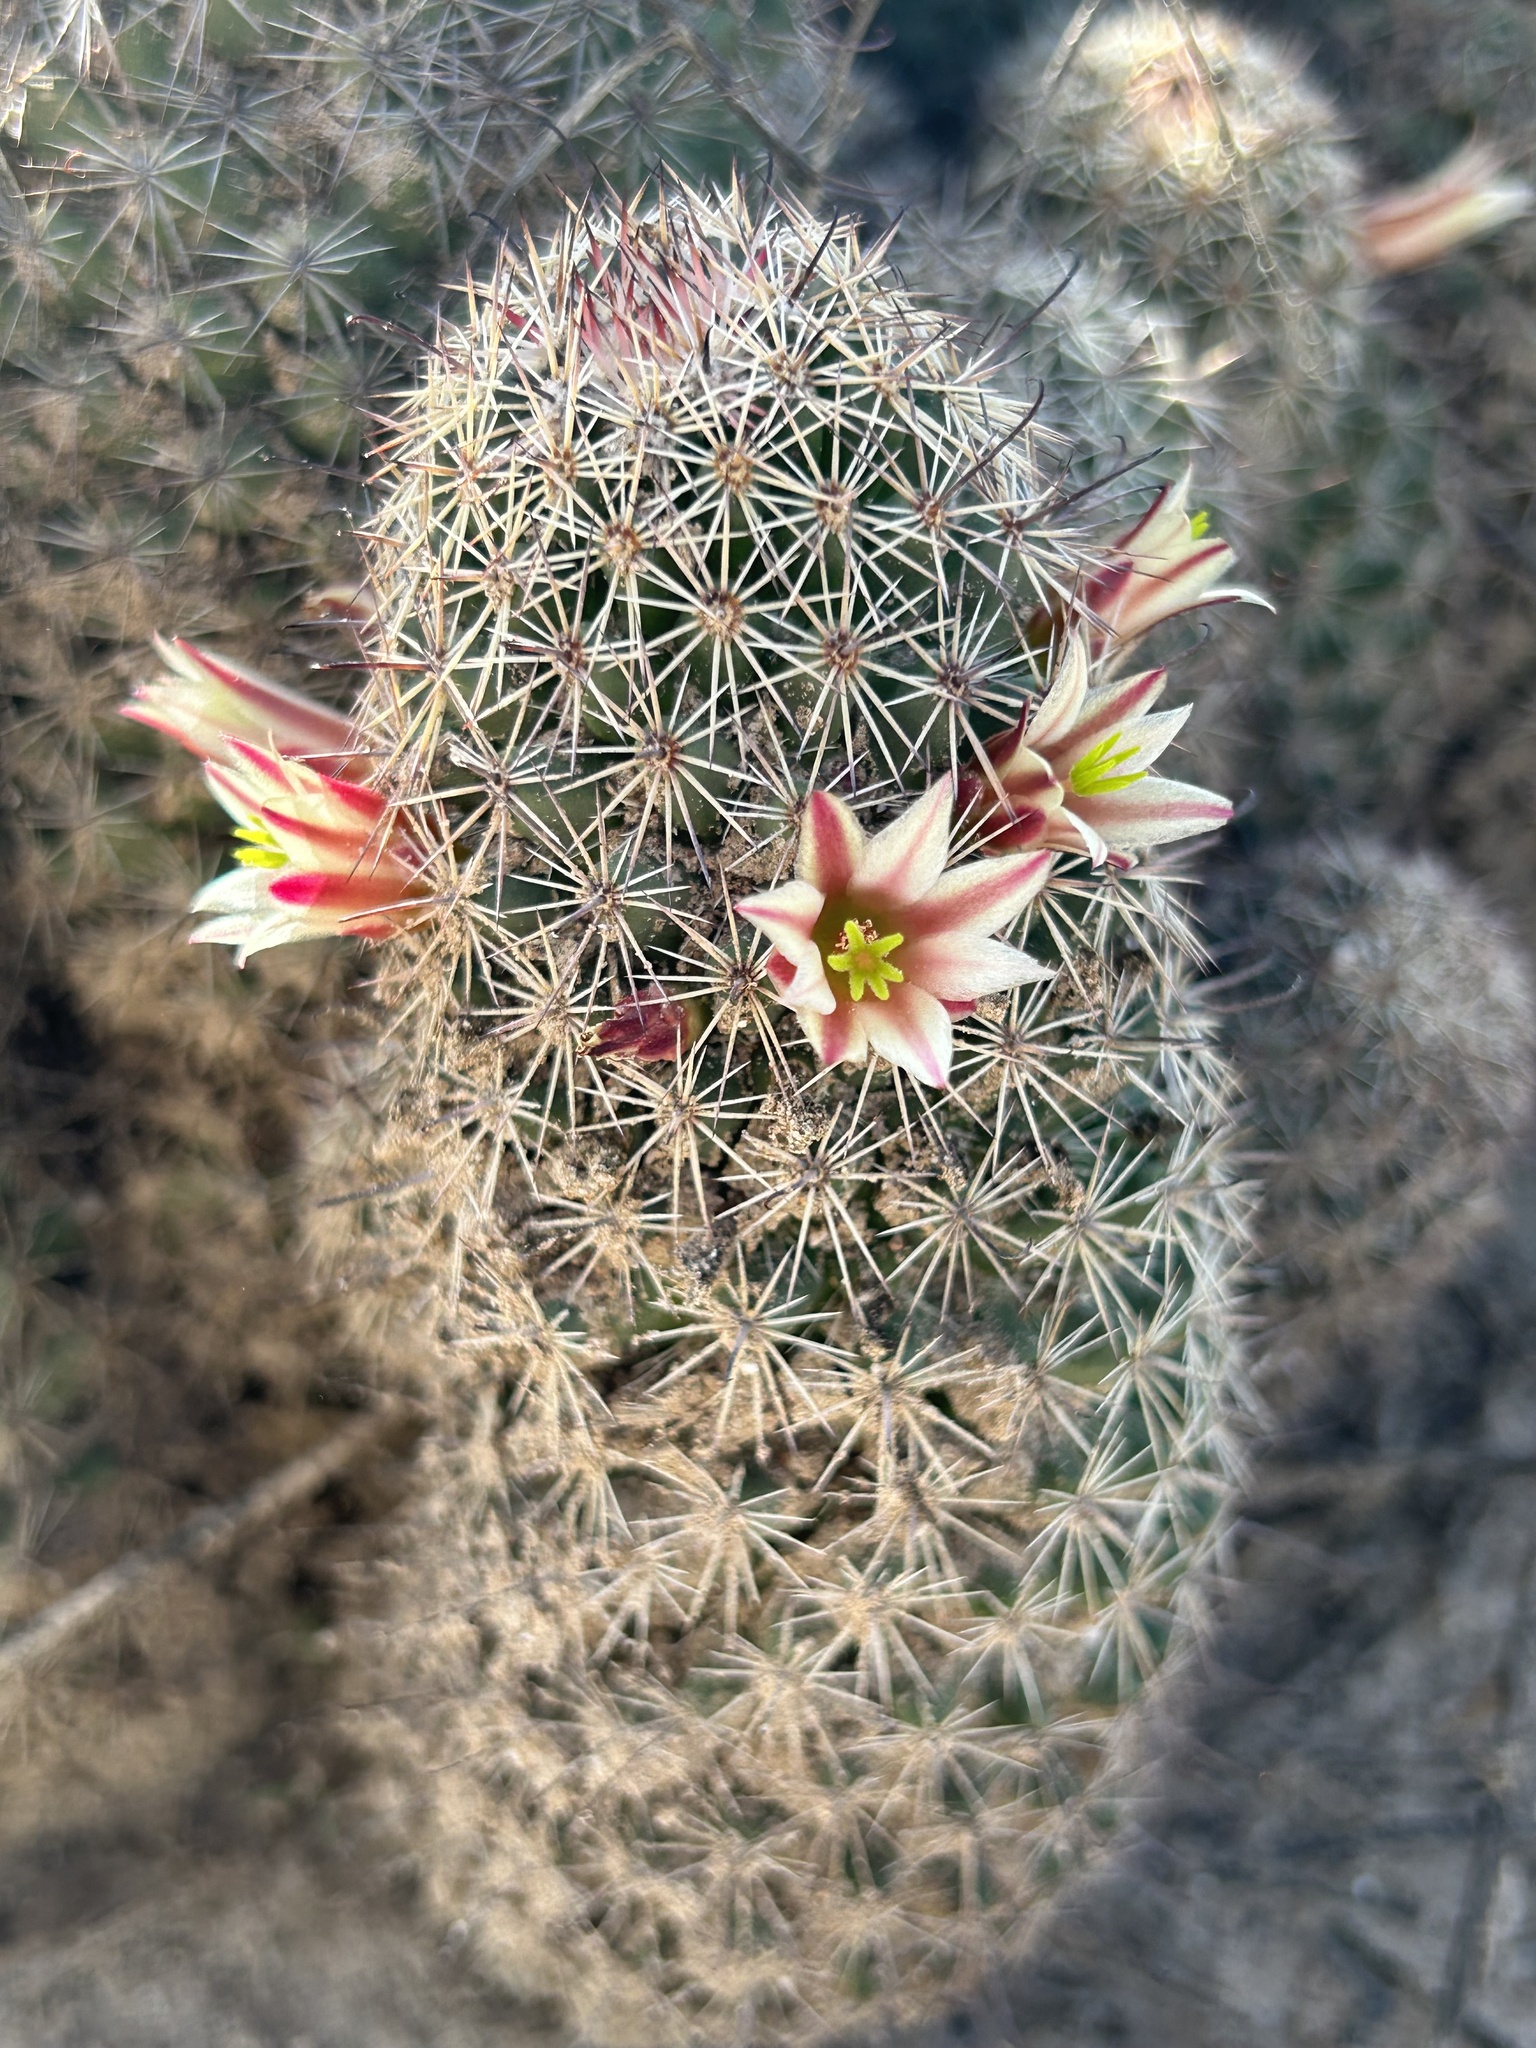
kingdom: Plantae
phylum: Tracheophyta
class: Magnoliopsida
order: Caryophyllales
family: Cactaceae
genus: Cochemiea
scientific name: Cochemiea dioica
